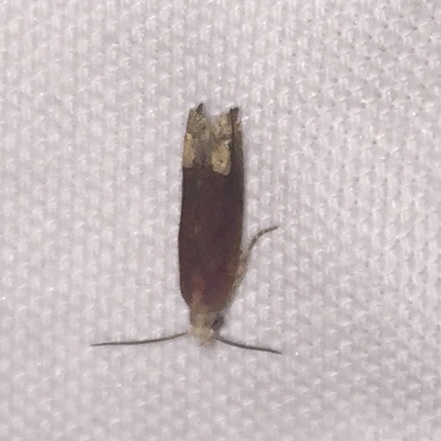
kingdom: Animalia
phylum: Arthropoda
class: Insecta
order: Lepidoptera
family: Tortricidae
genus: Eucosma
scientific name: Eucosma raracana
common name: Reddish eucosma moth
